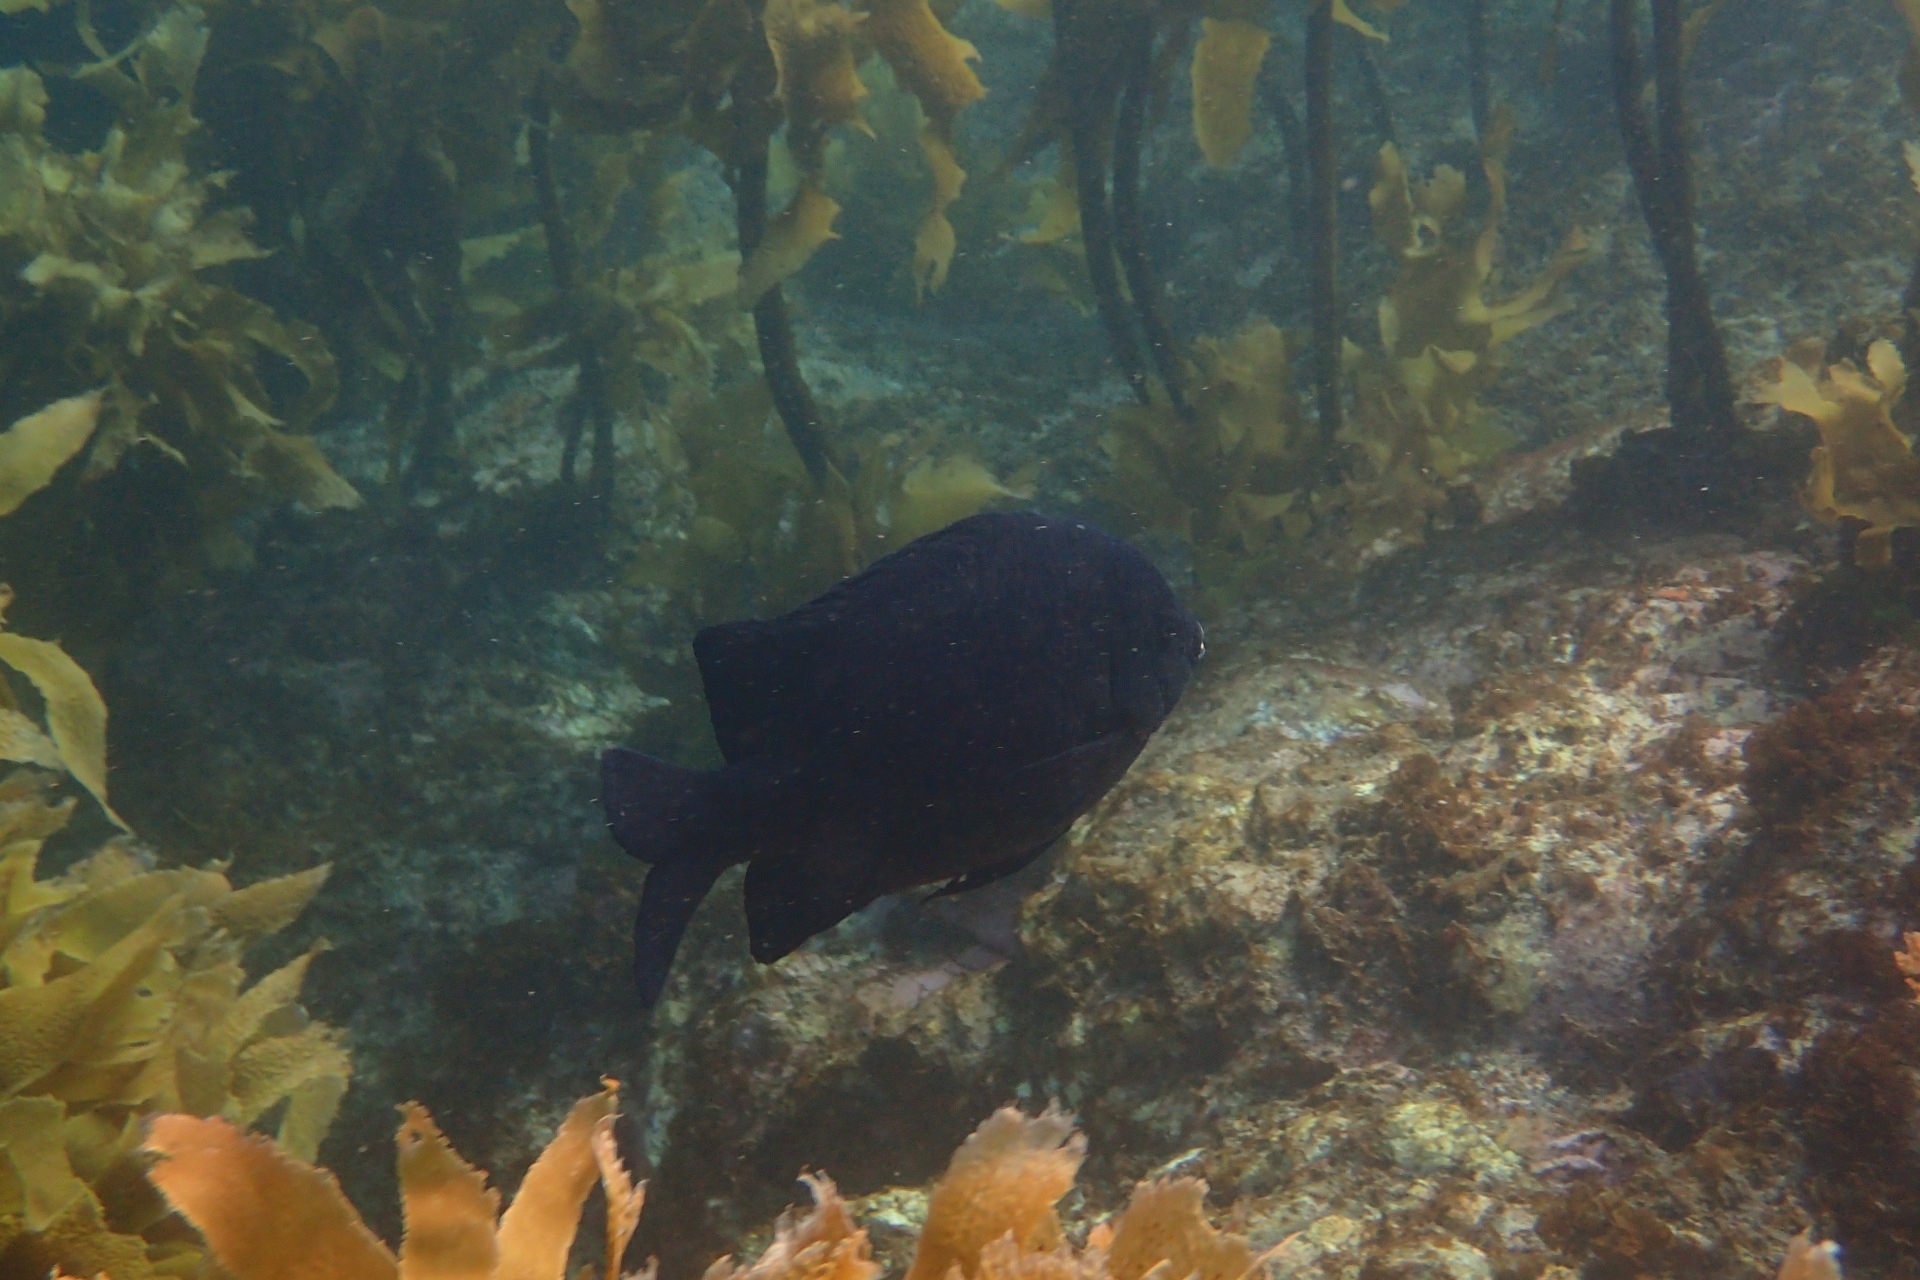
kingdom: Animalia
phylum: Chordata
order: Perciformes
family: Pomacentridae
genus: Parma
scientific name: Parma alboscapularis
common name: Black angelfish
